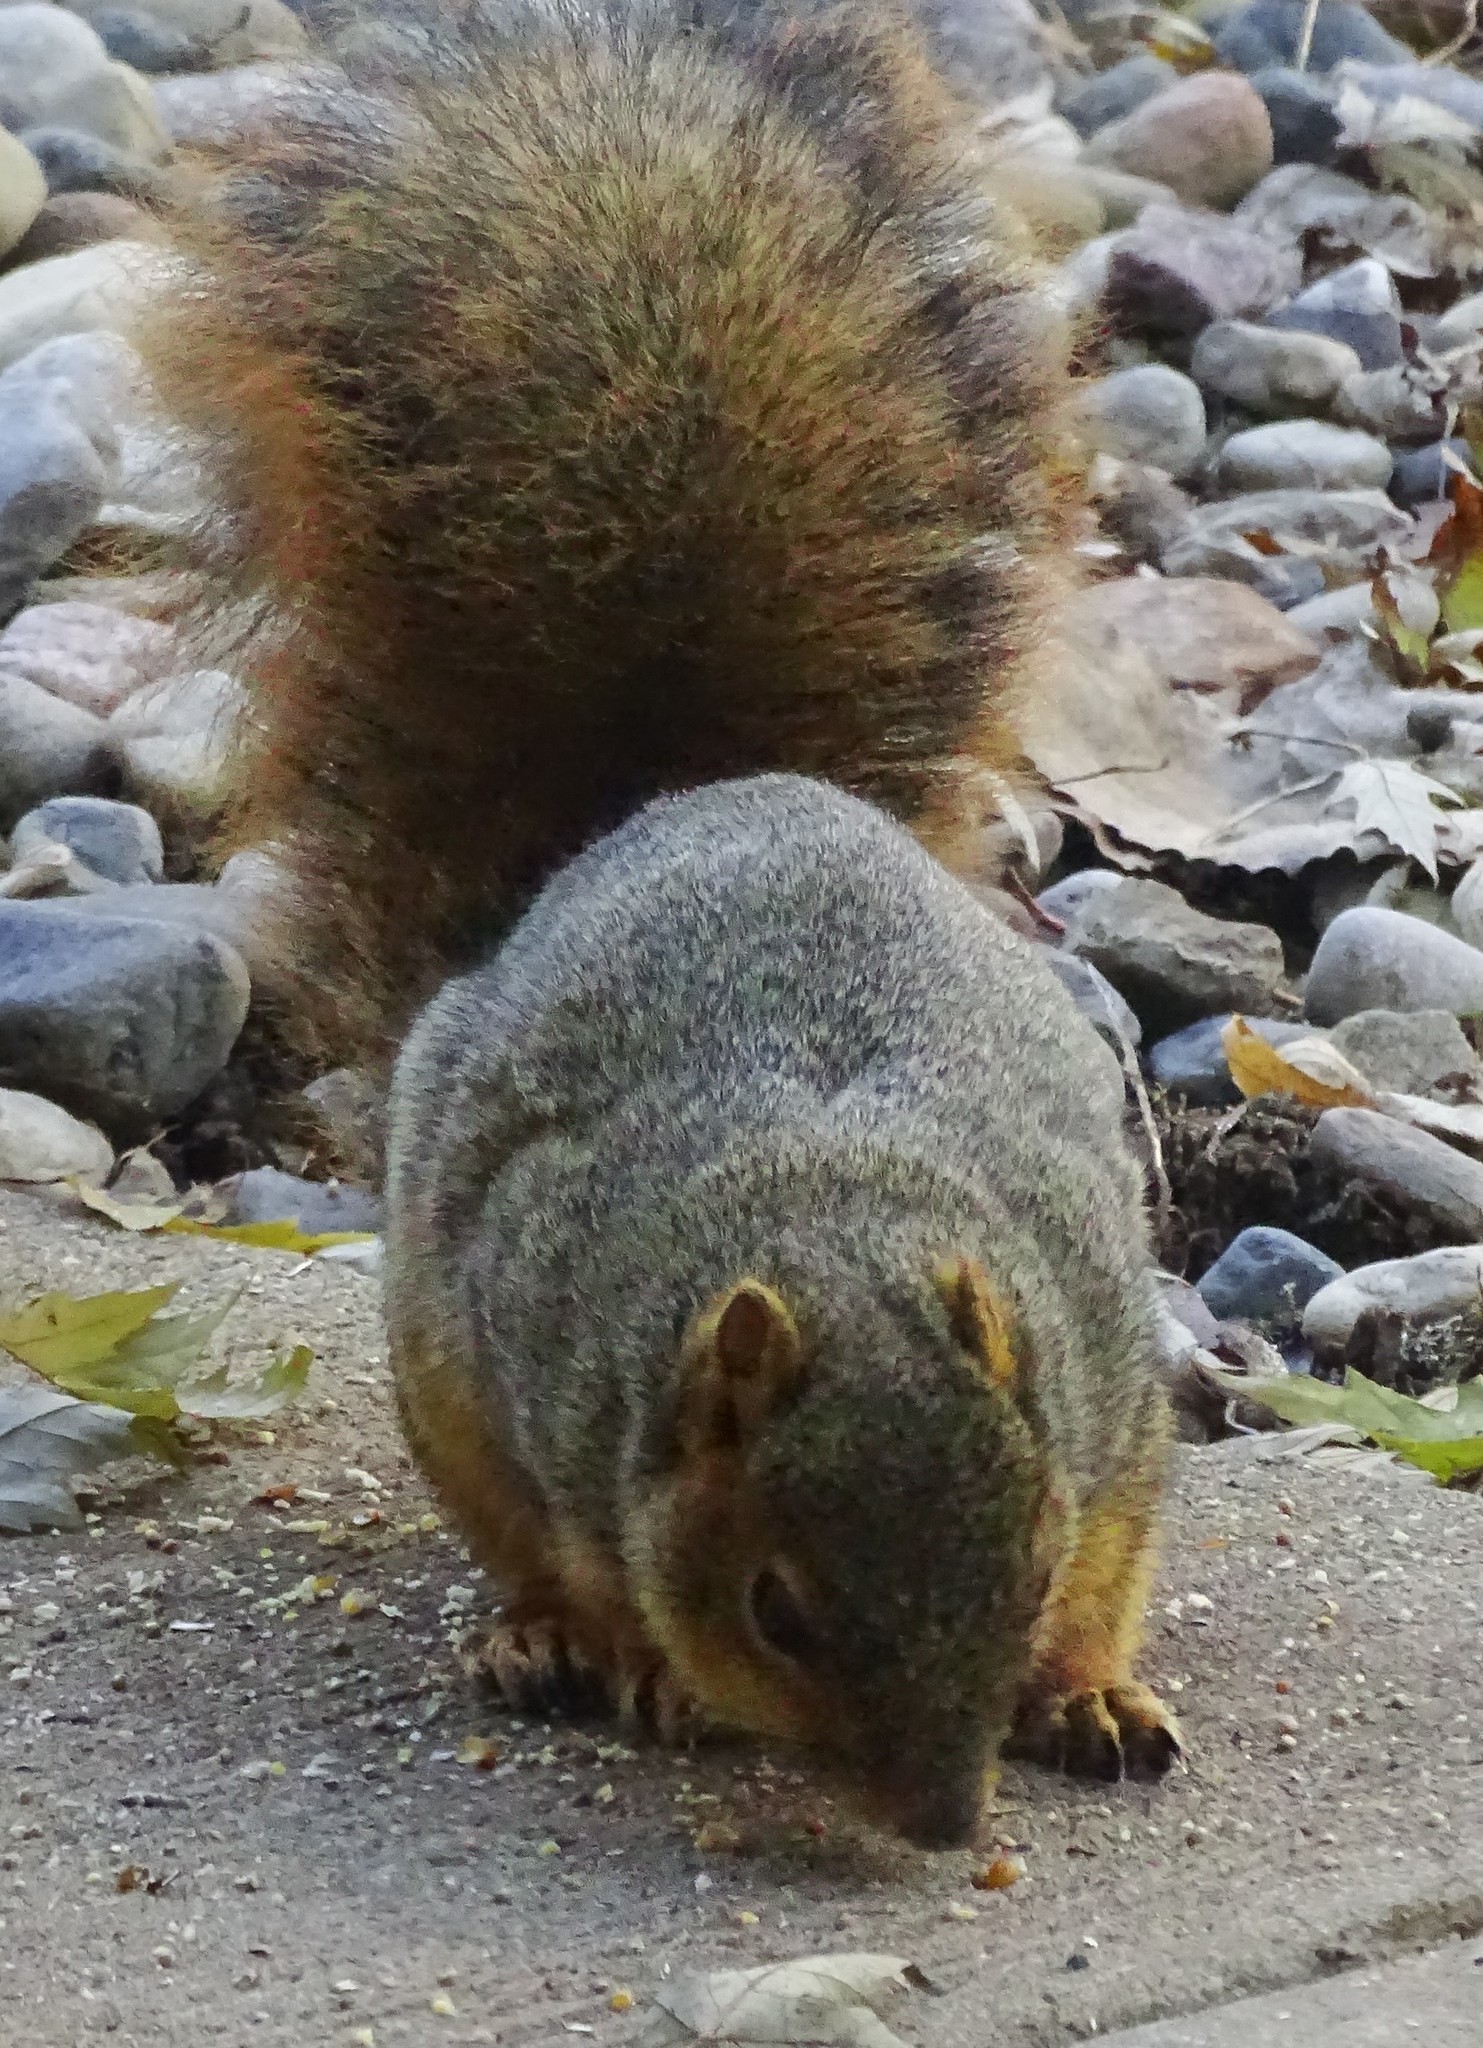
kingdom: Animalia
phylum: Chordata
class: Mammalia
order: Rodentia
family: Sciuridae
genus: Sciurus
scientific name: Sciurus niger
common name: Fox squirrel
